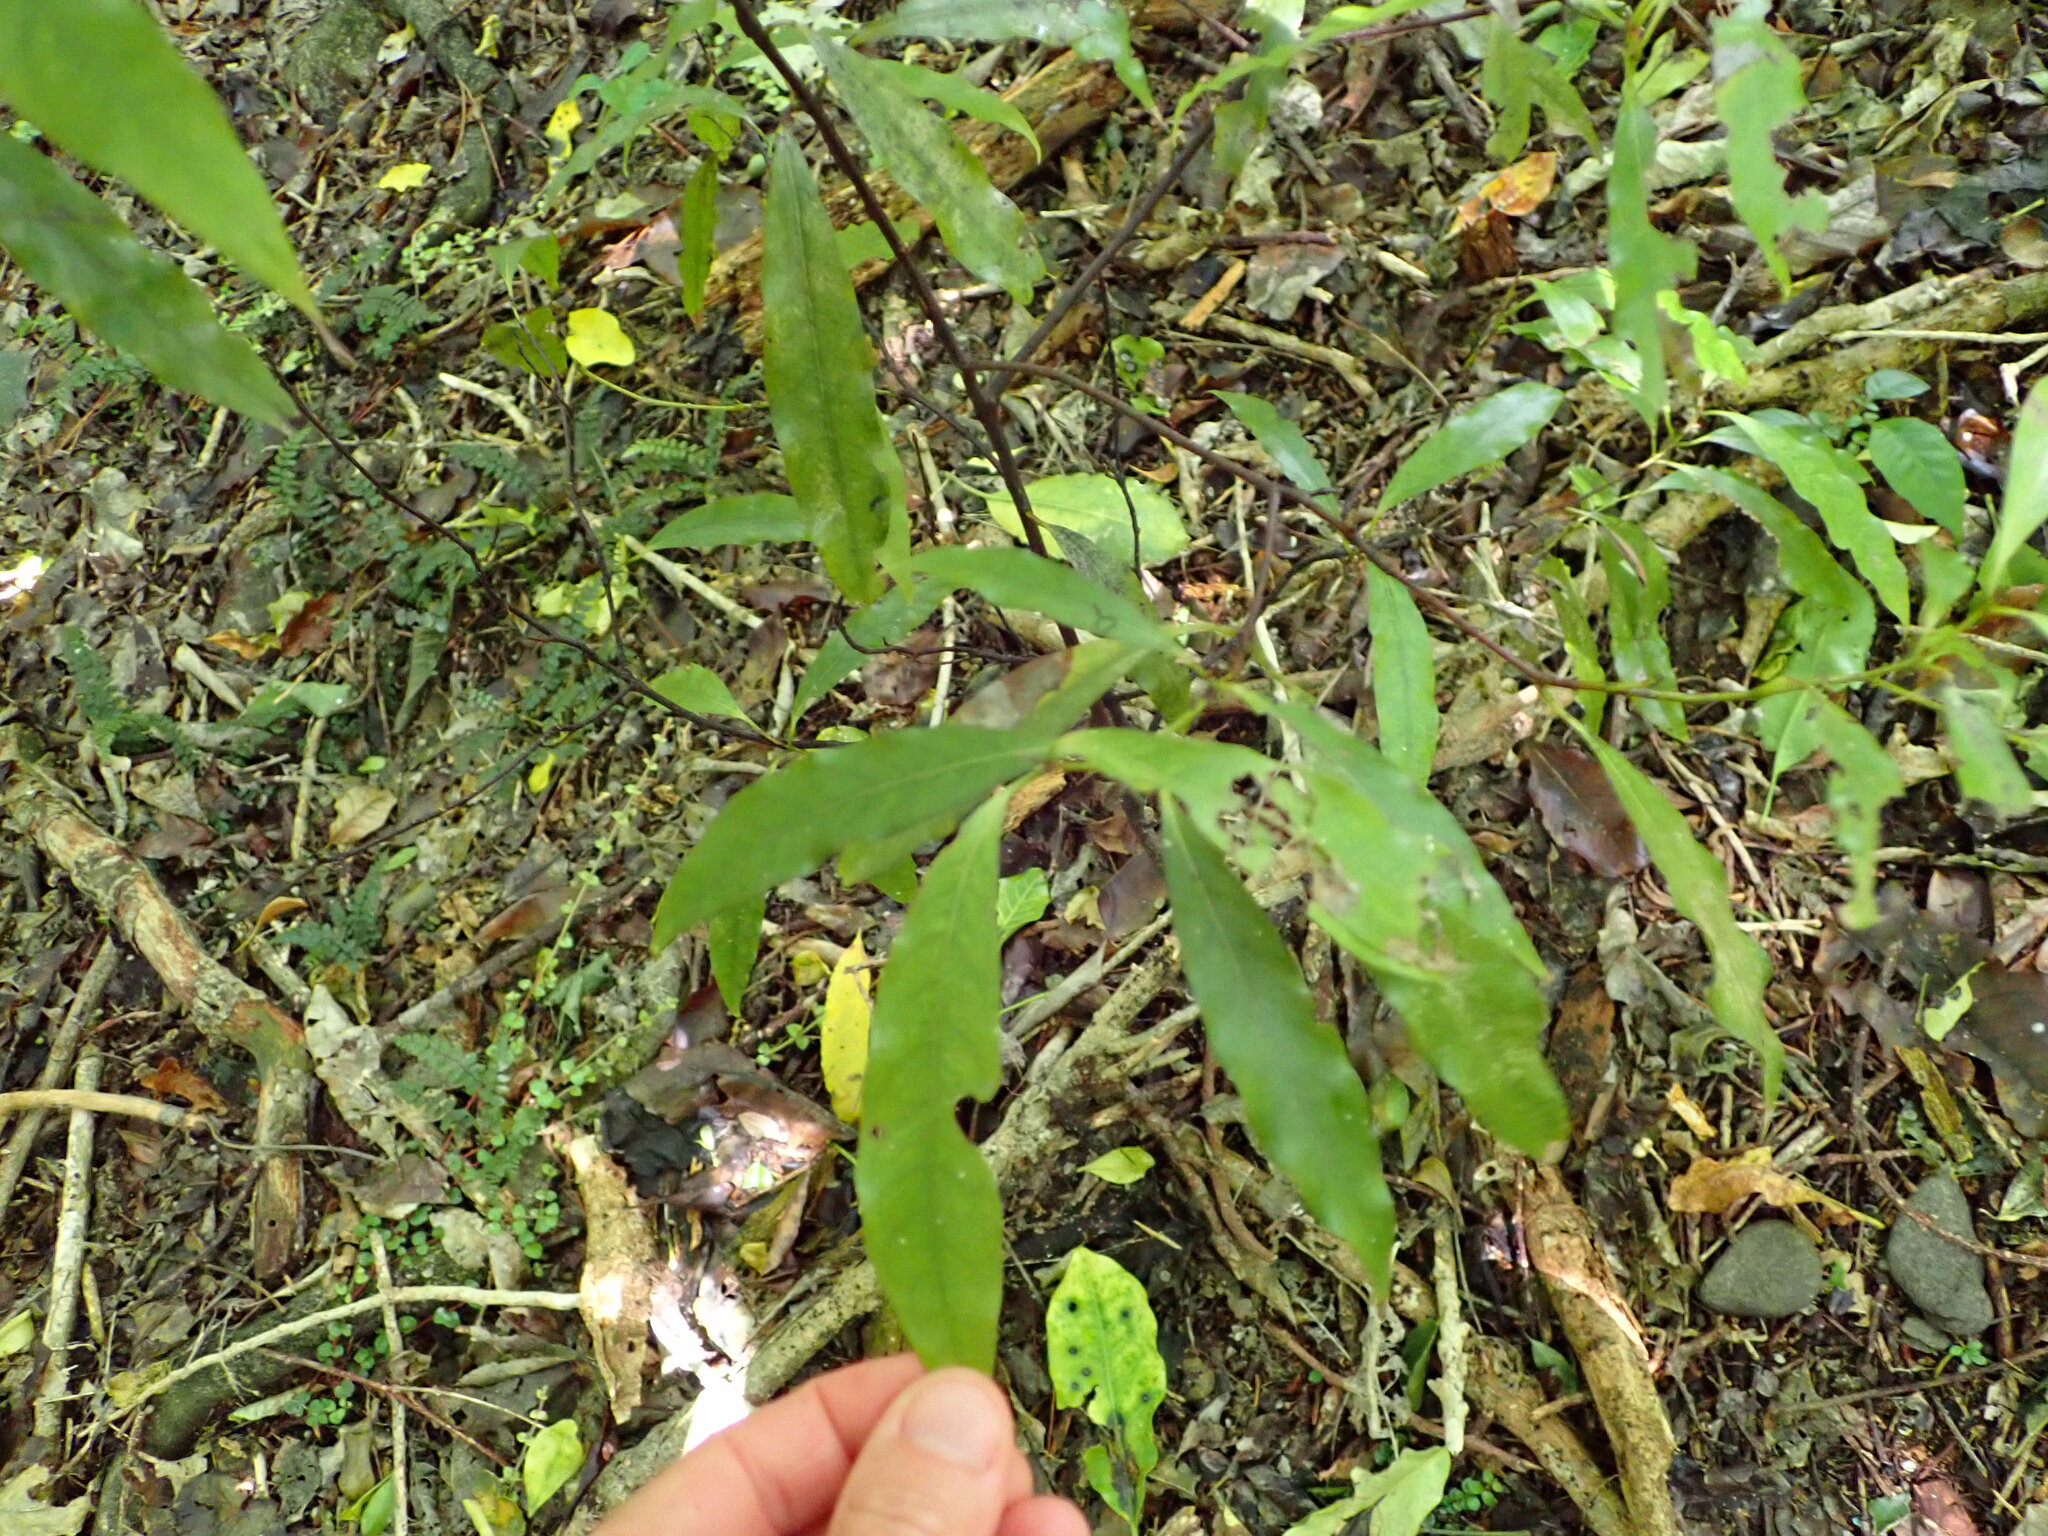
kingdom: Plantae
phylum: Tracheophyta
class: Magnoliopsida
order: Laurales
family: Lauraceae
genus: Beilschmiedia
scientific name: Beilschmiedia tawa
